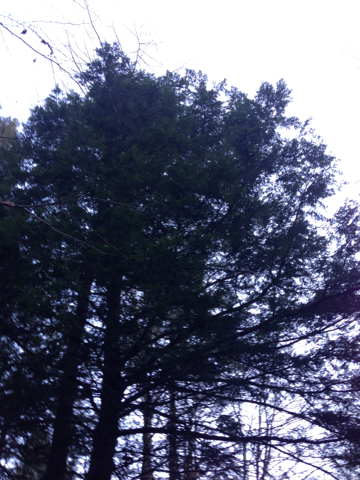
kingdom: Plantae
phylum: Tracheophyta
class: Pinopsida
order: Pinales
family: Pinaceae
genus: Tsuga
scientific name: Tsuga canadensis
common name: Eastern hemlock
